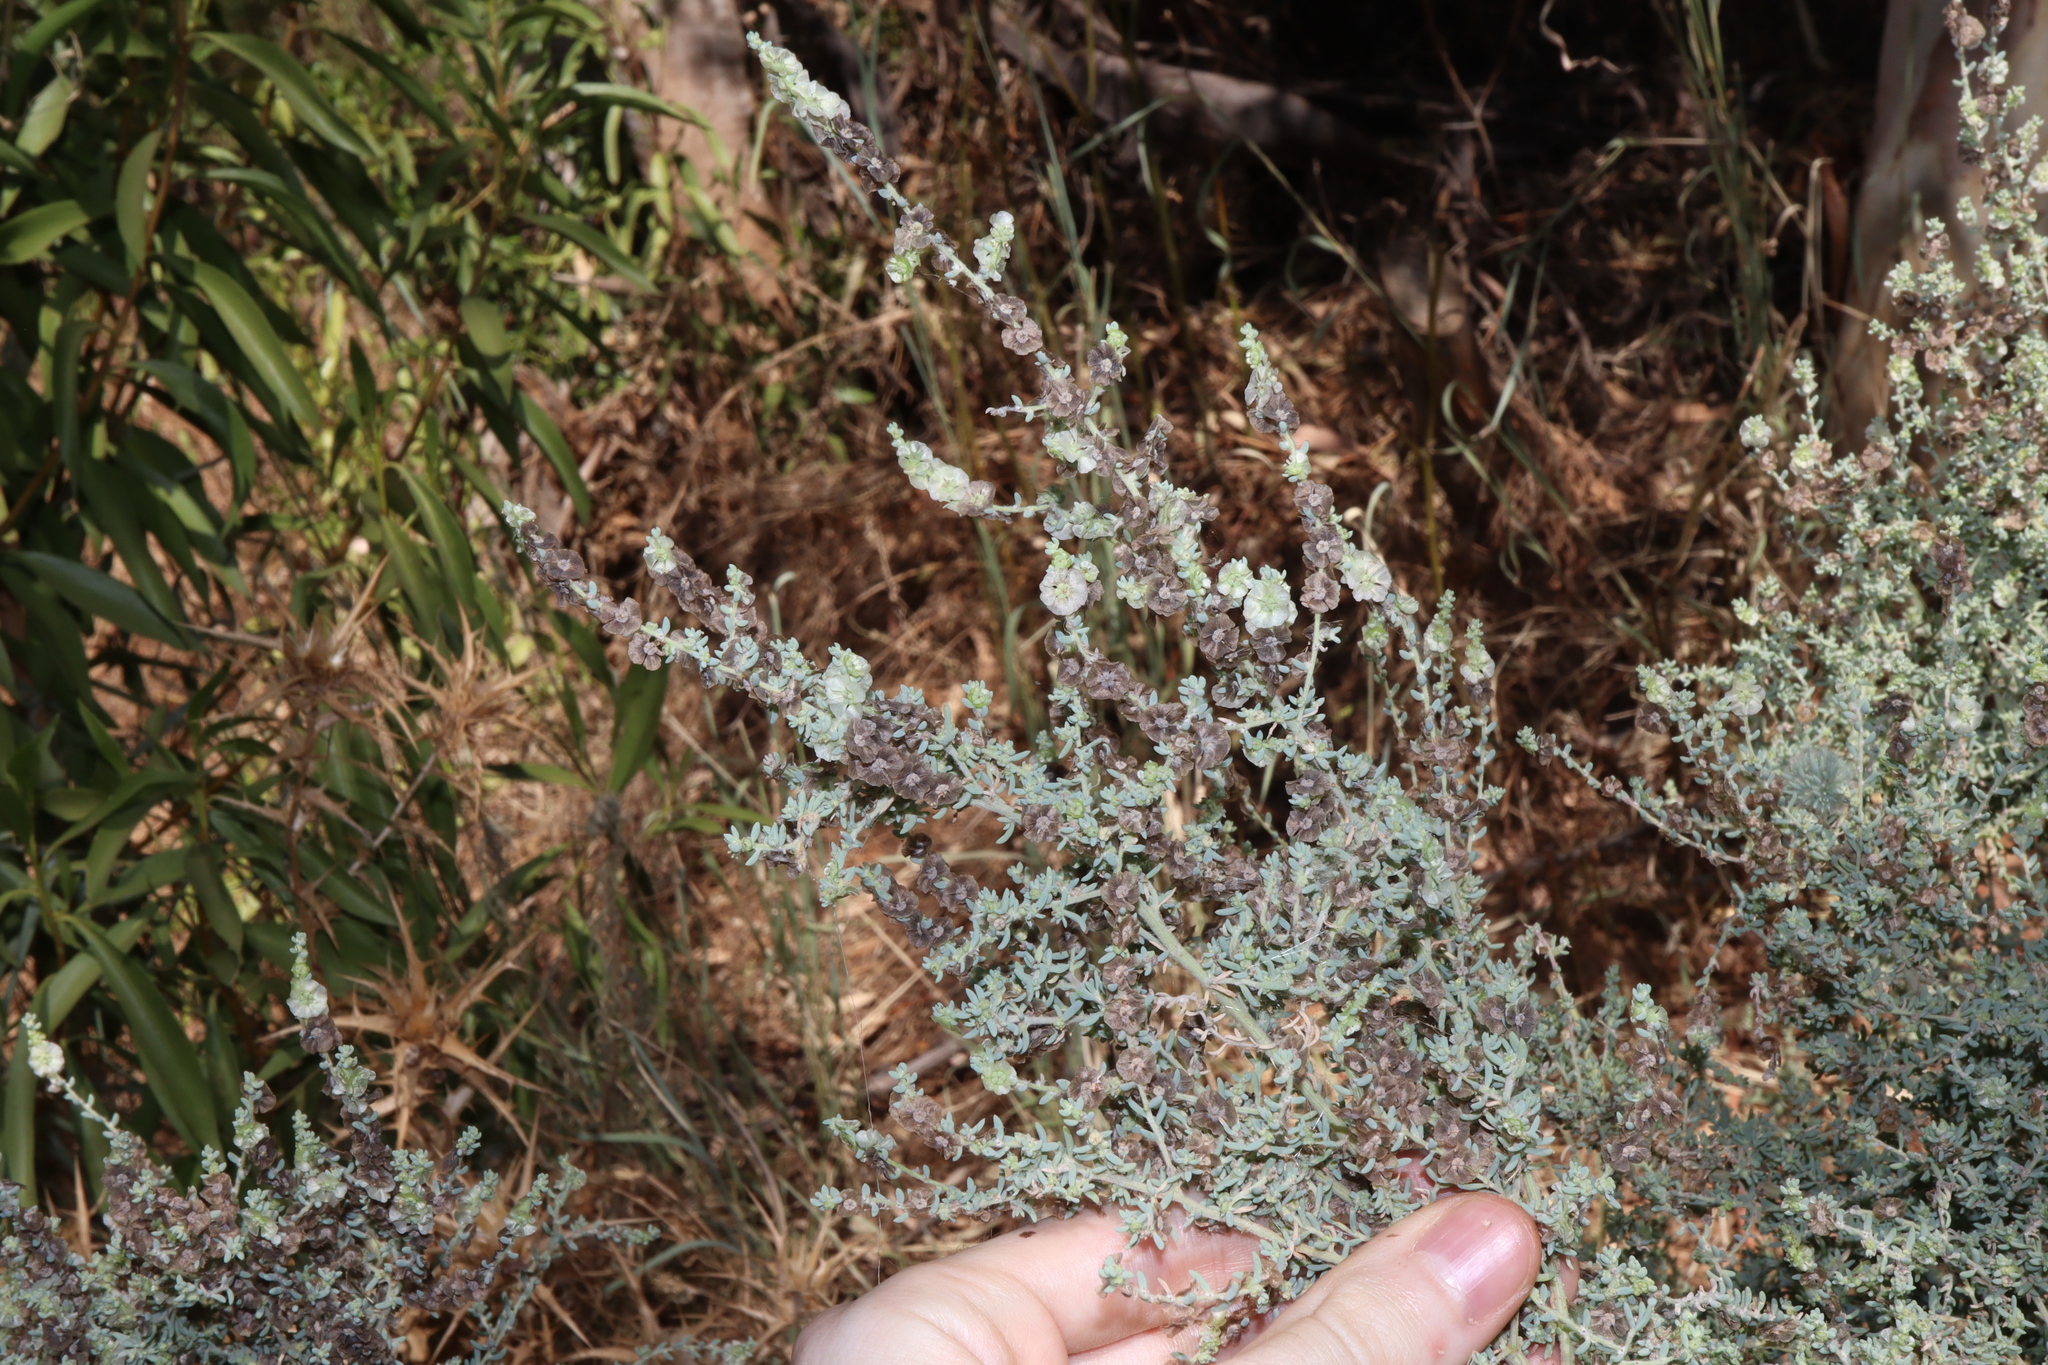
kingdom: Plantae
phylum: Tracheophyta
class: Magnoliopsida
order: Caryophyllales
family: Amaranthaceae
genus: Maireana
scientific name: Maireana brevifolia
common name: Eastern cottonbush
